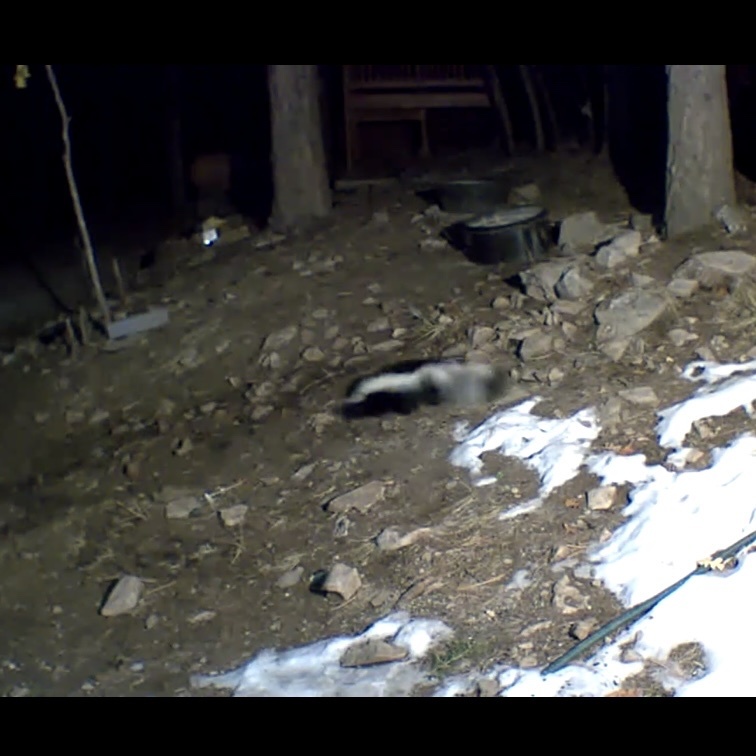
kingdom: Animalia
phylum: Chordata
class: Mammalia
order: Carnivora
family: Mephitidae
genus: Mephitis
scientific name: Mephitis mephitis
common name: Striped skunk
